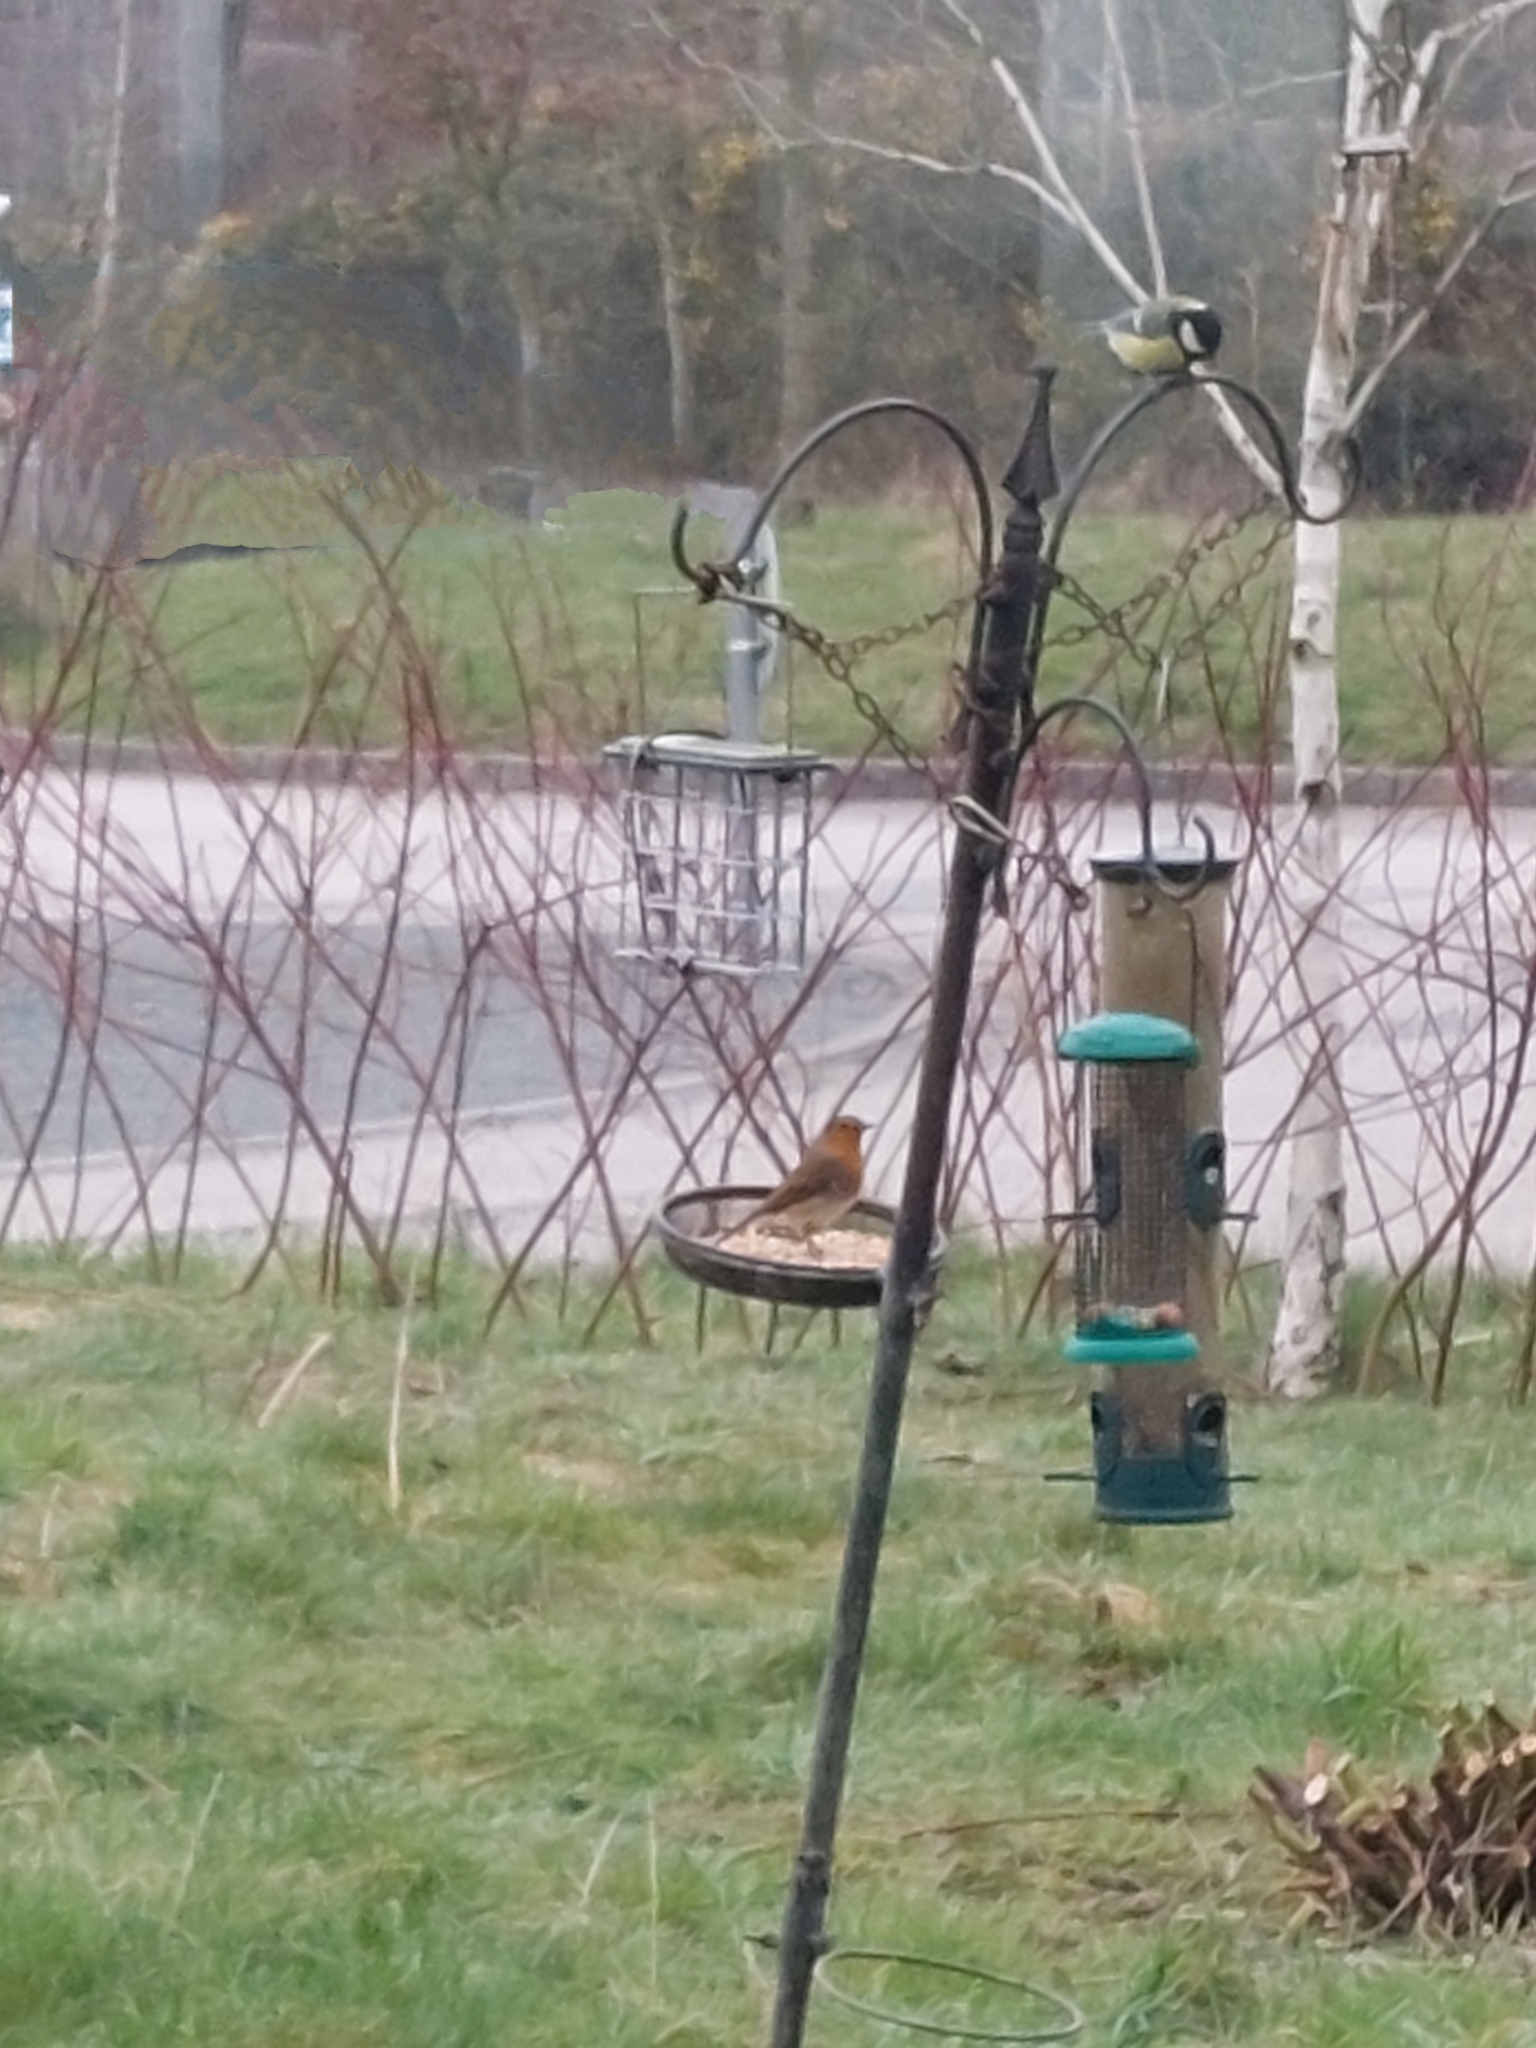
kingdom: Animalia
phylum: Chordata
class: Aves
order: Passeriformes
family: Muscicapidae
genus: Erithacus
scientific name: Erithacus rubecula
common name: European robin
